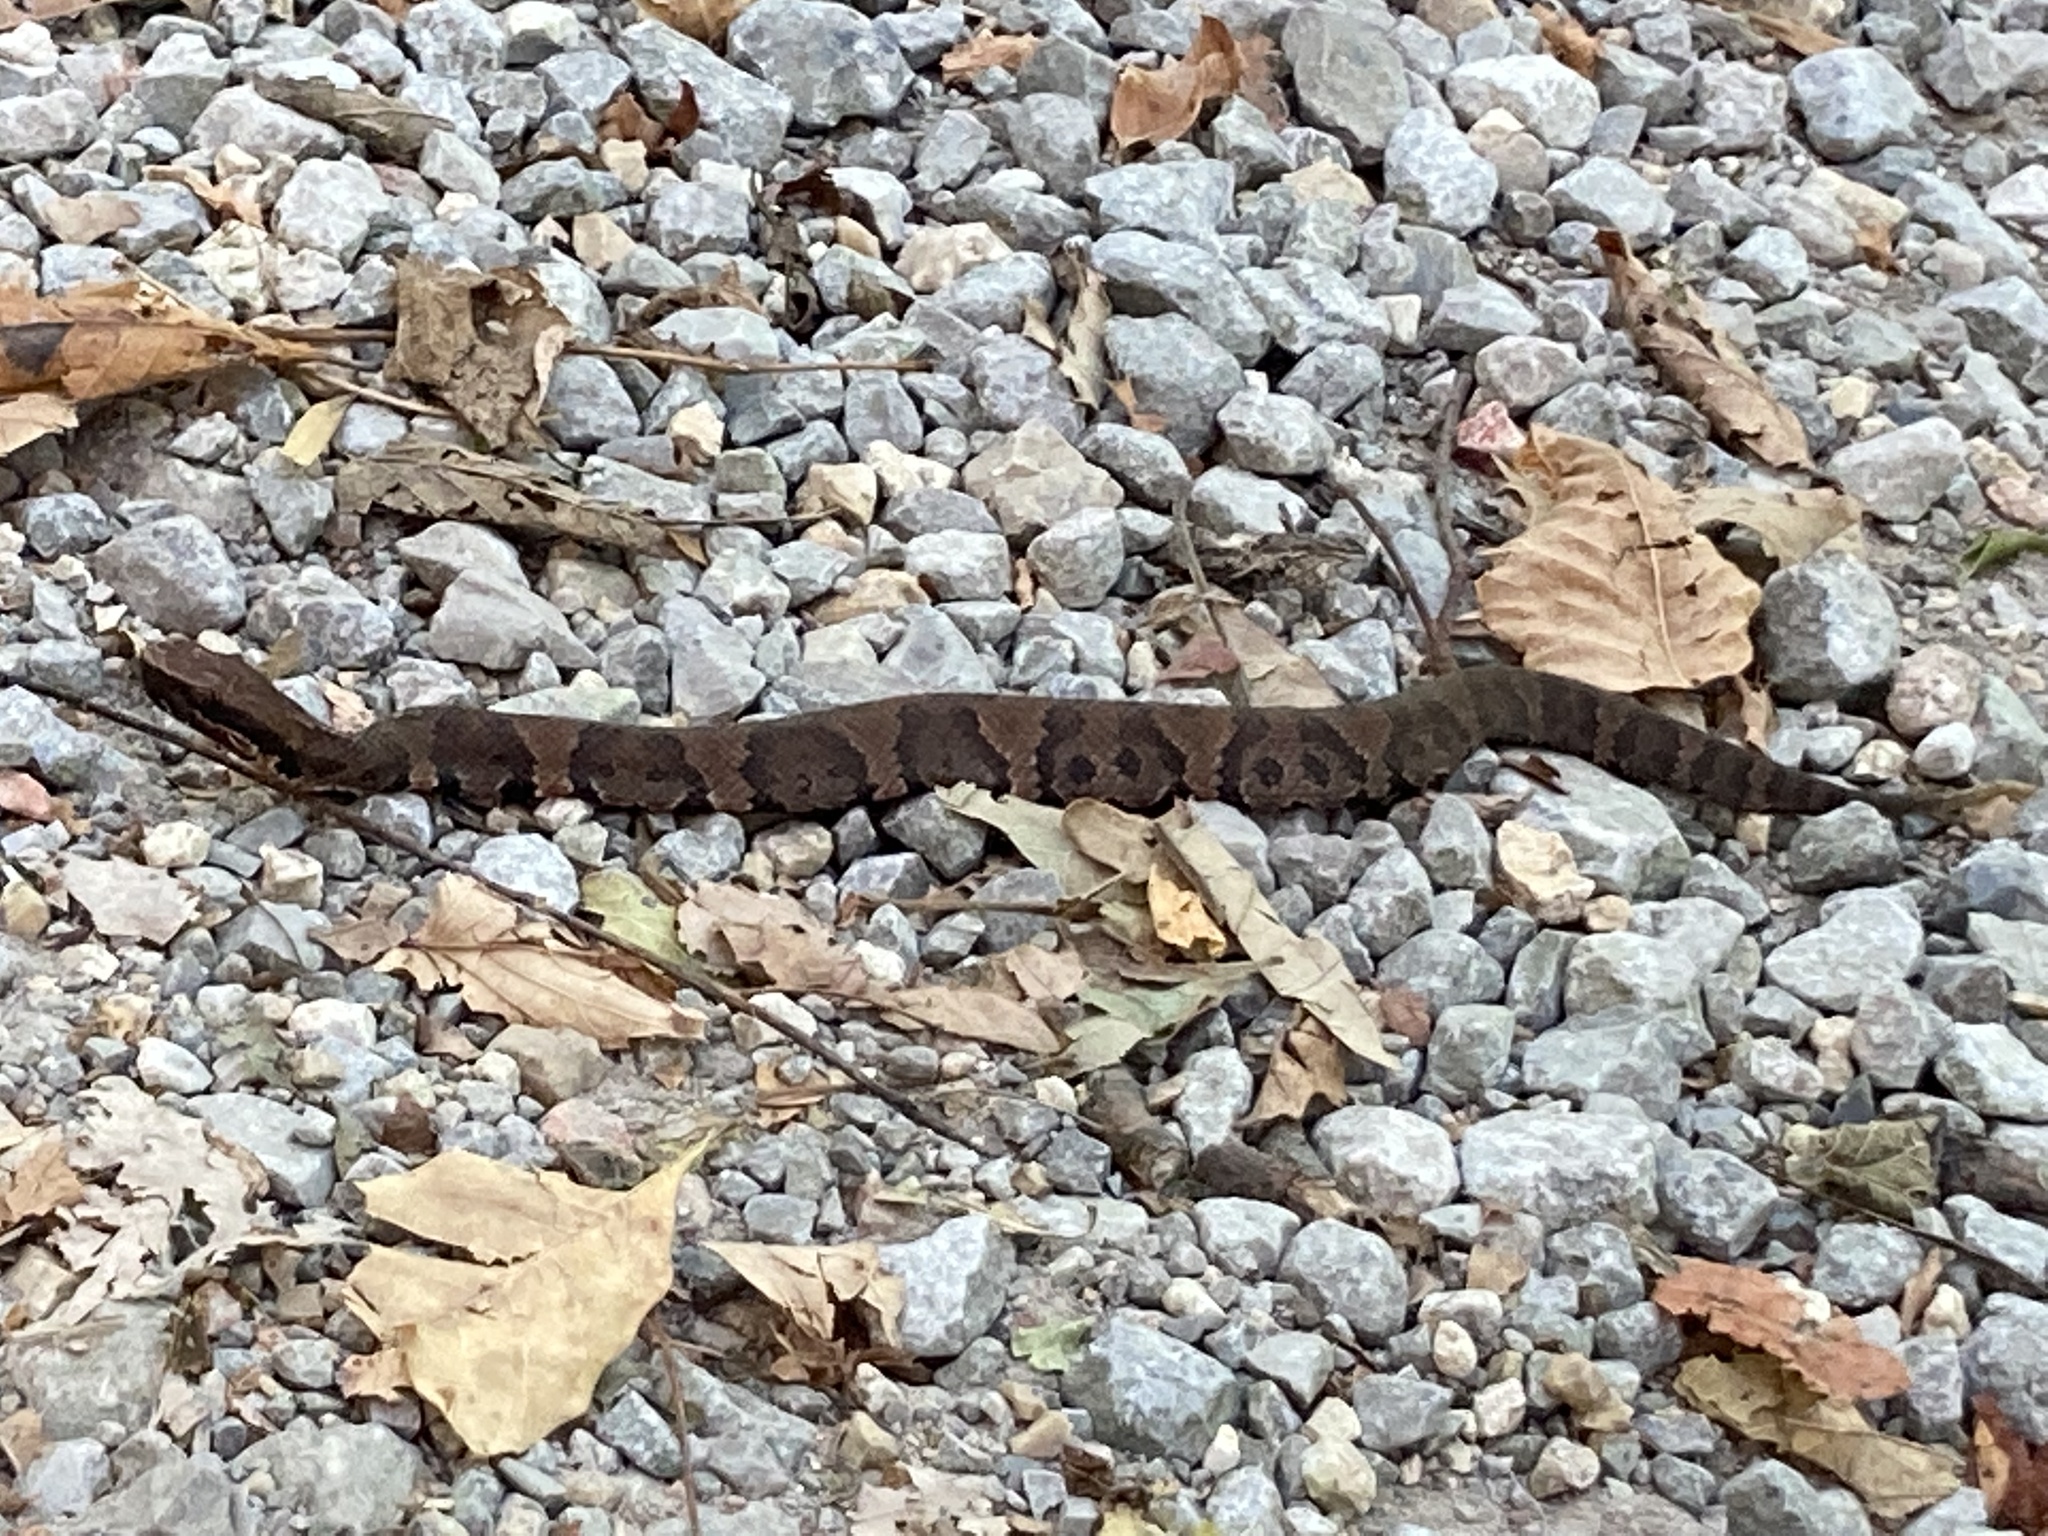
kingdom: Animalia
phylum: Chordata
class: Squamata
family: Viperidae
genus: Agkistrodon
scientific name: Agkistrodon piscivorus
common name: Cottonmouth
